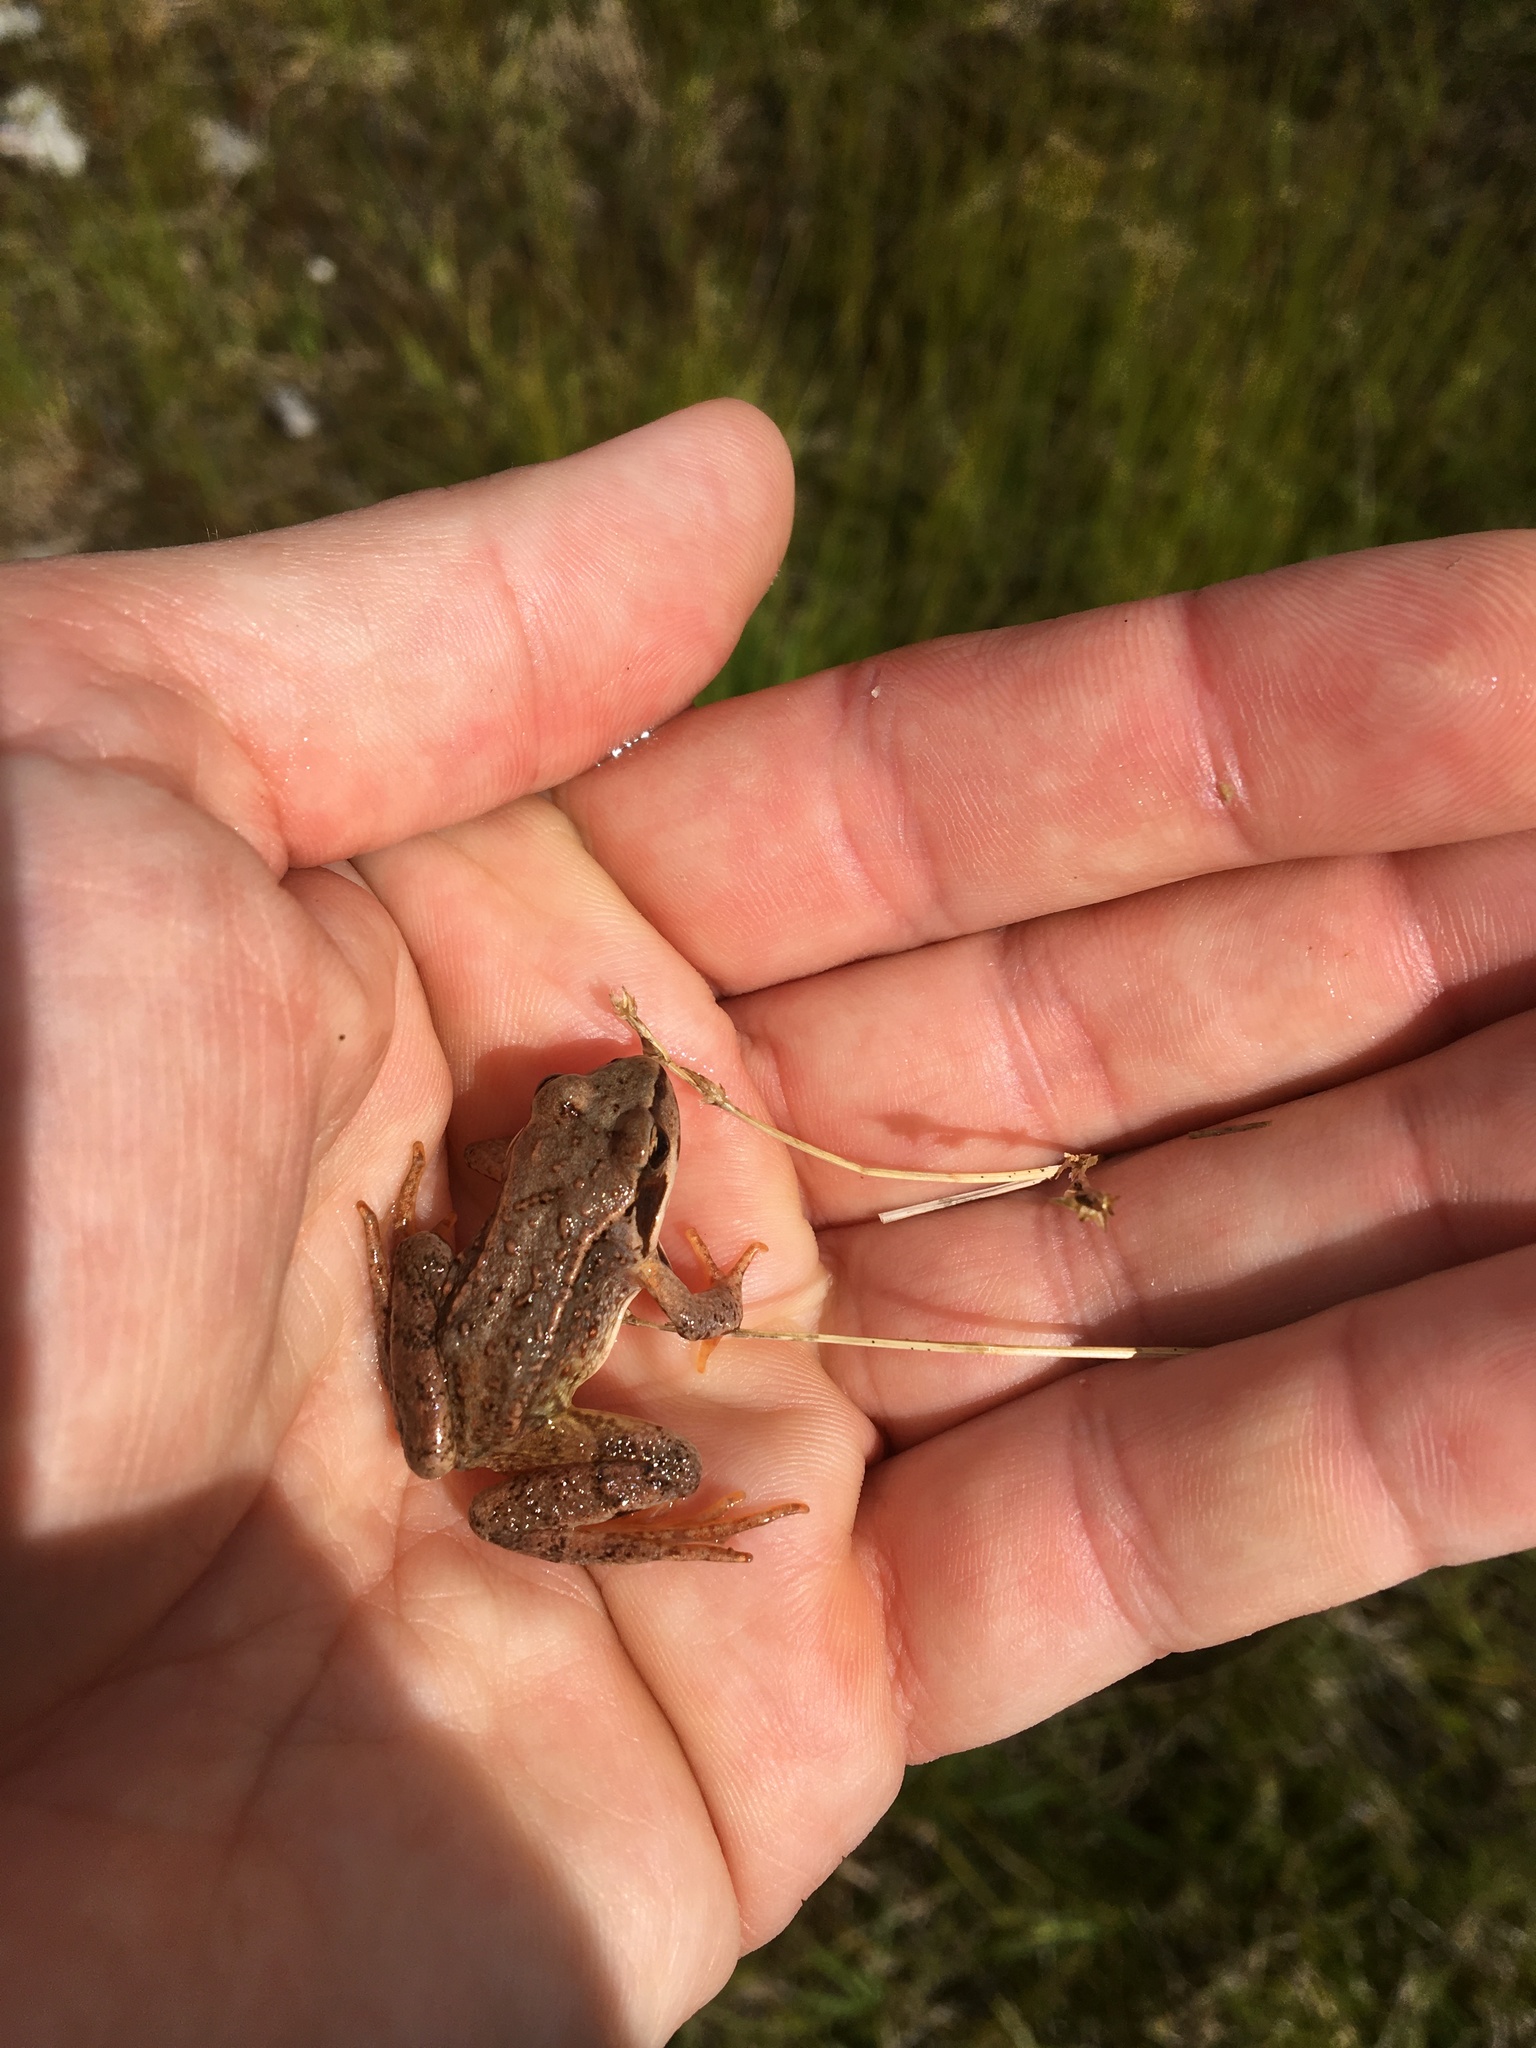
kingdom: Animalia
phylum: Chordata
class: Amphibia
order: Anura
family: Ranidae
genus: Rana
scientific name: Rana temporaria
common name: Common frog
